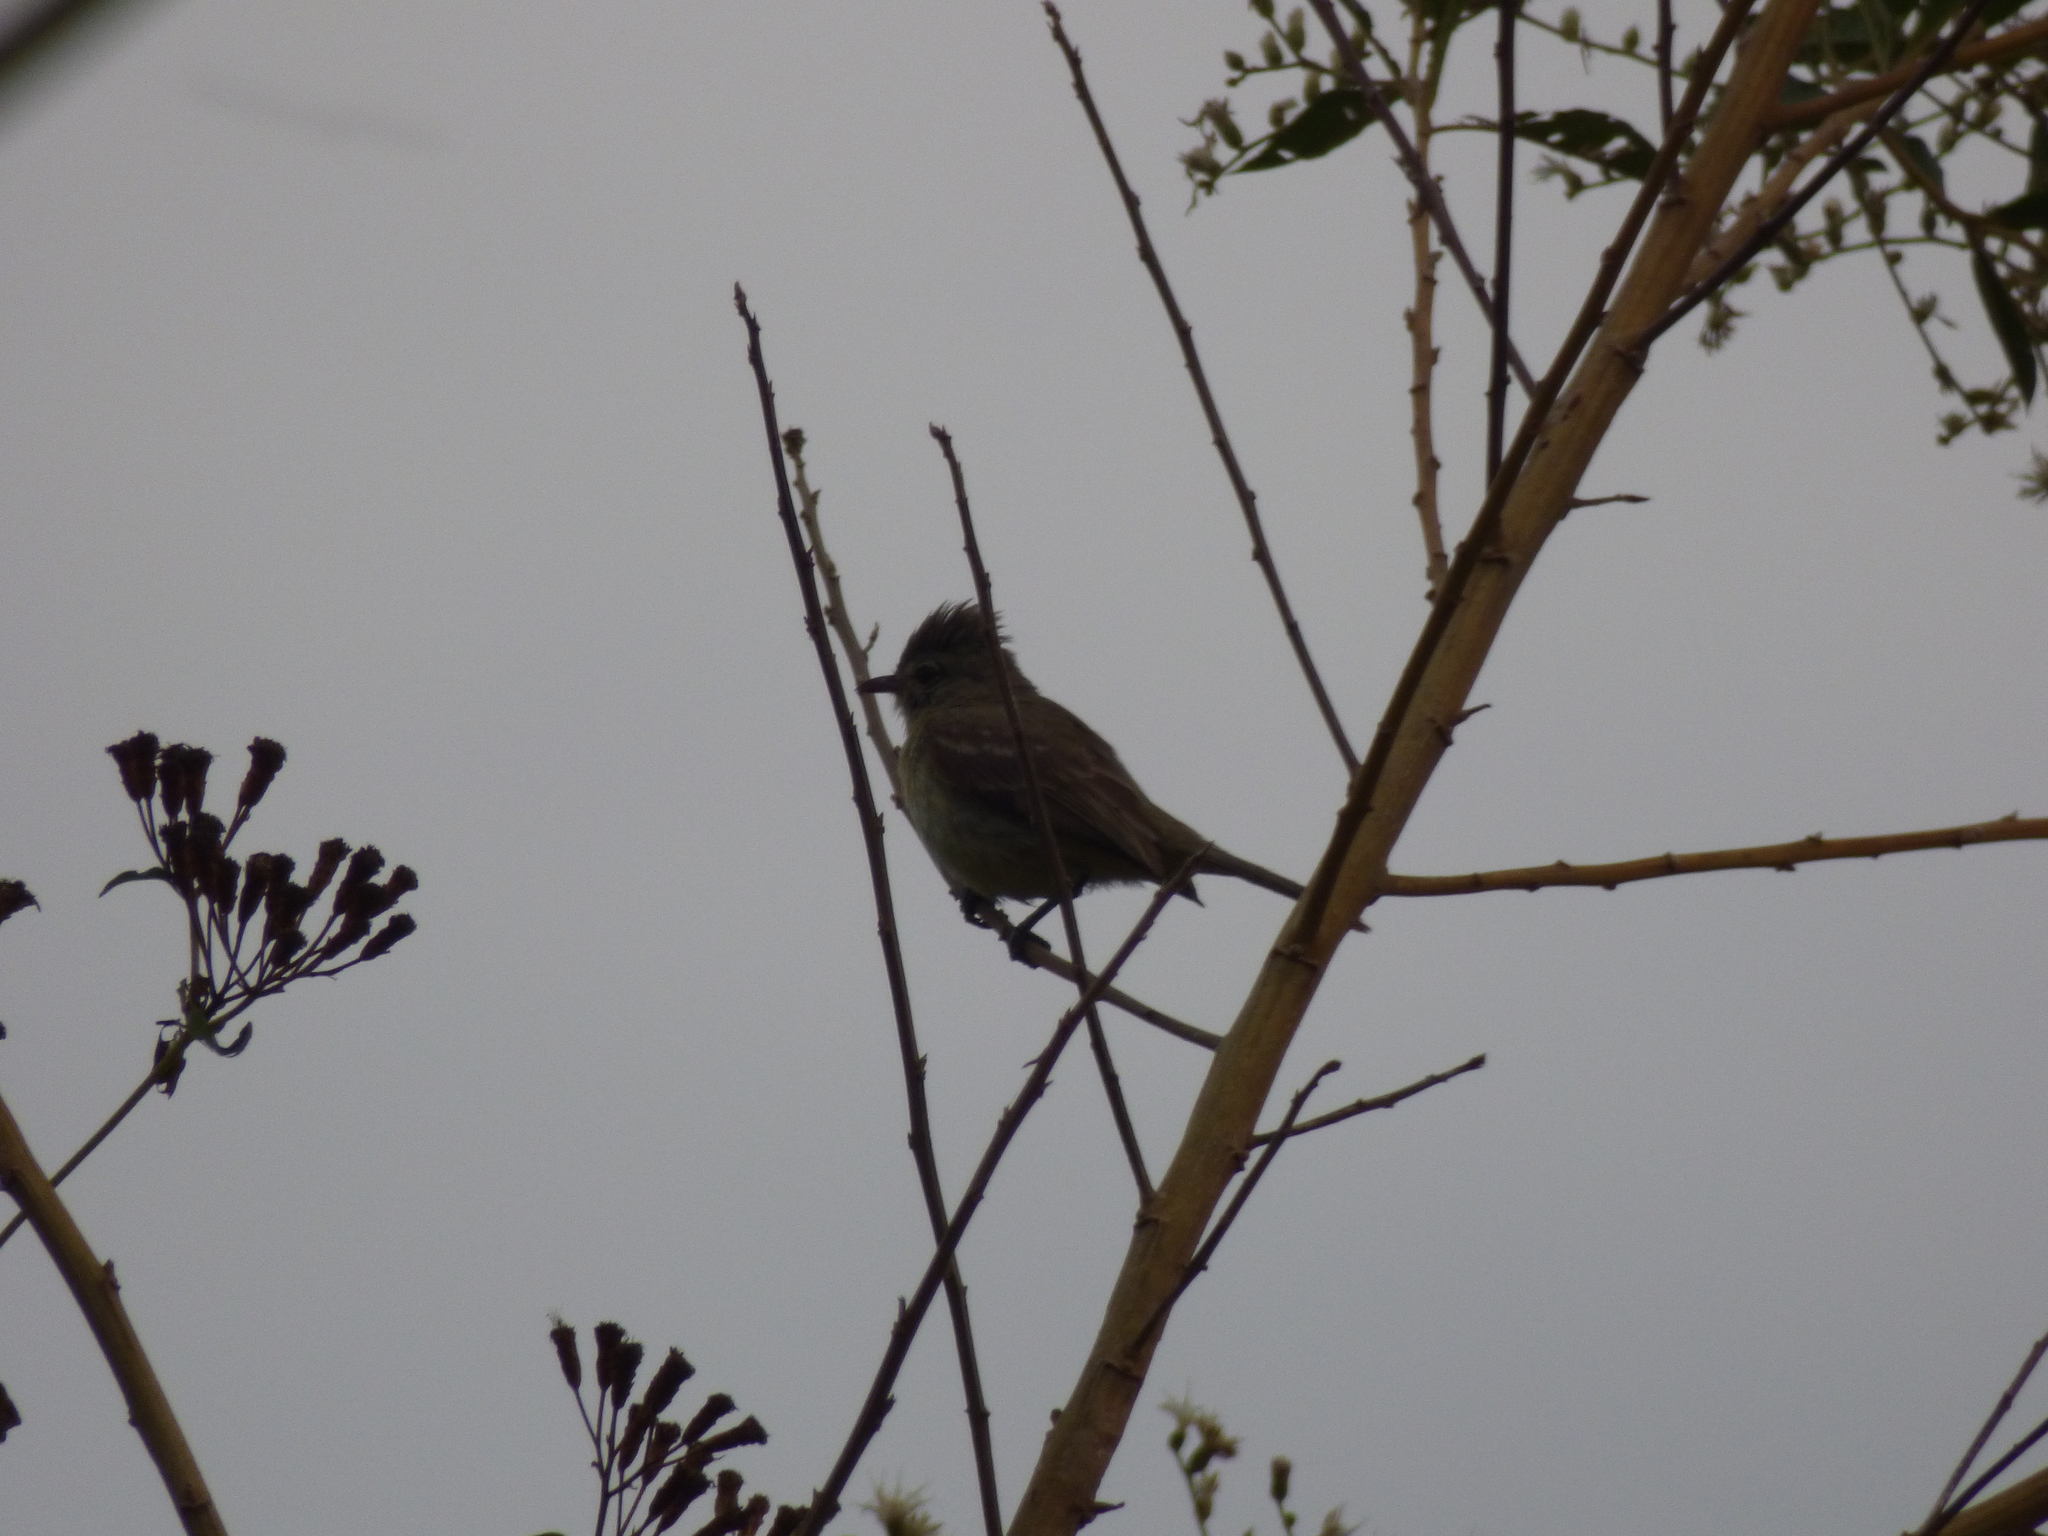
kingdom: Animalia
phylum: Chordata
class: Aves
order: Passeriformes
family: Tyrannidae
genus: Elaenia
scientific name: Elaenia flavogaster
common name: Yellow-bellied elaenia
